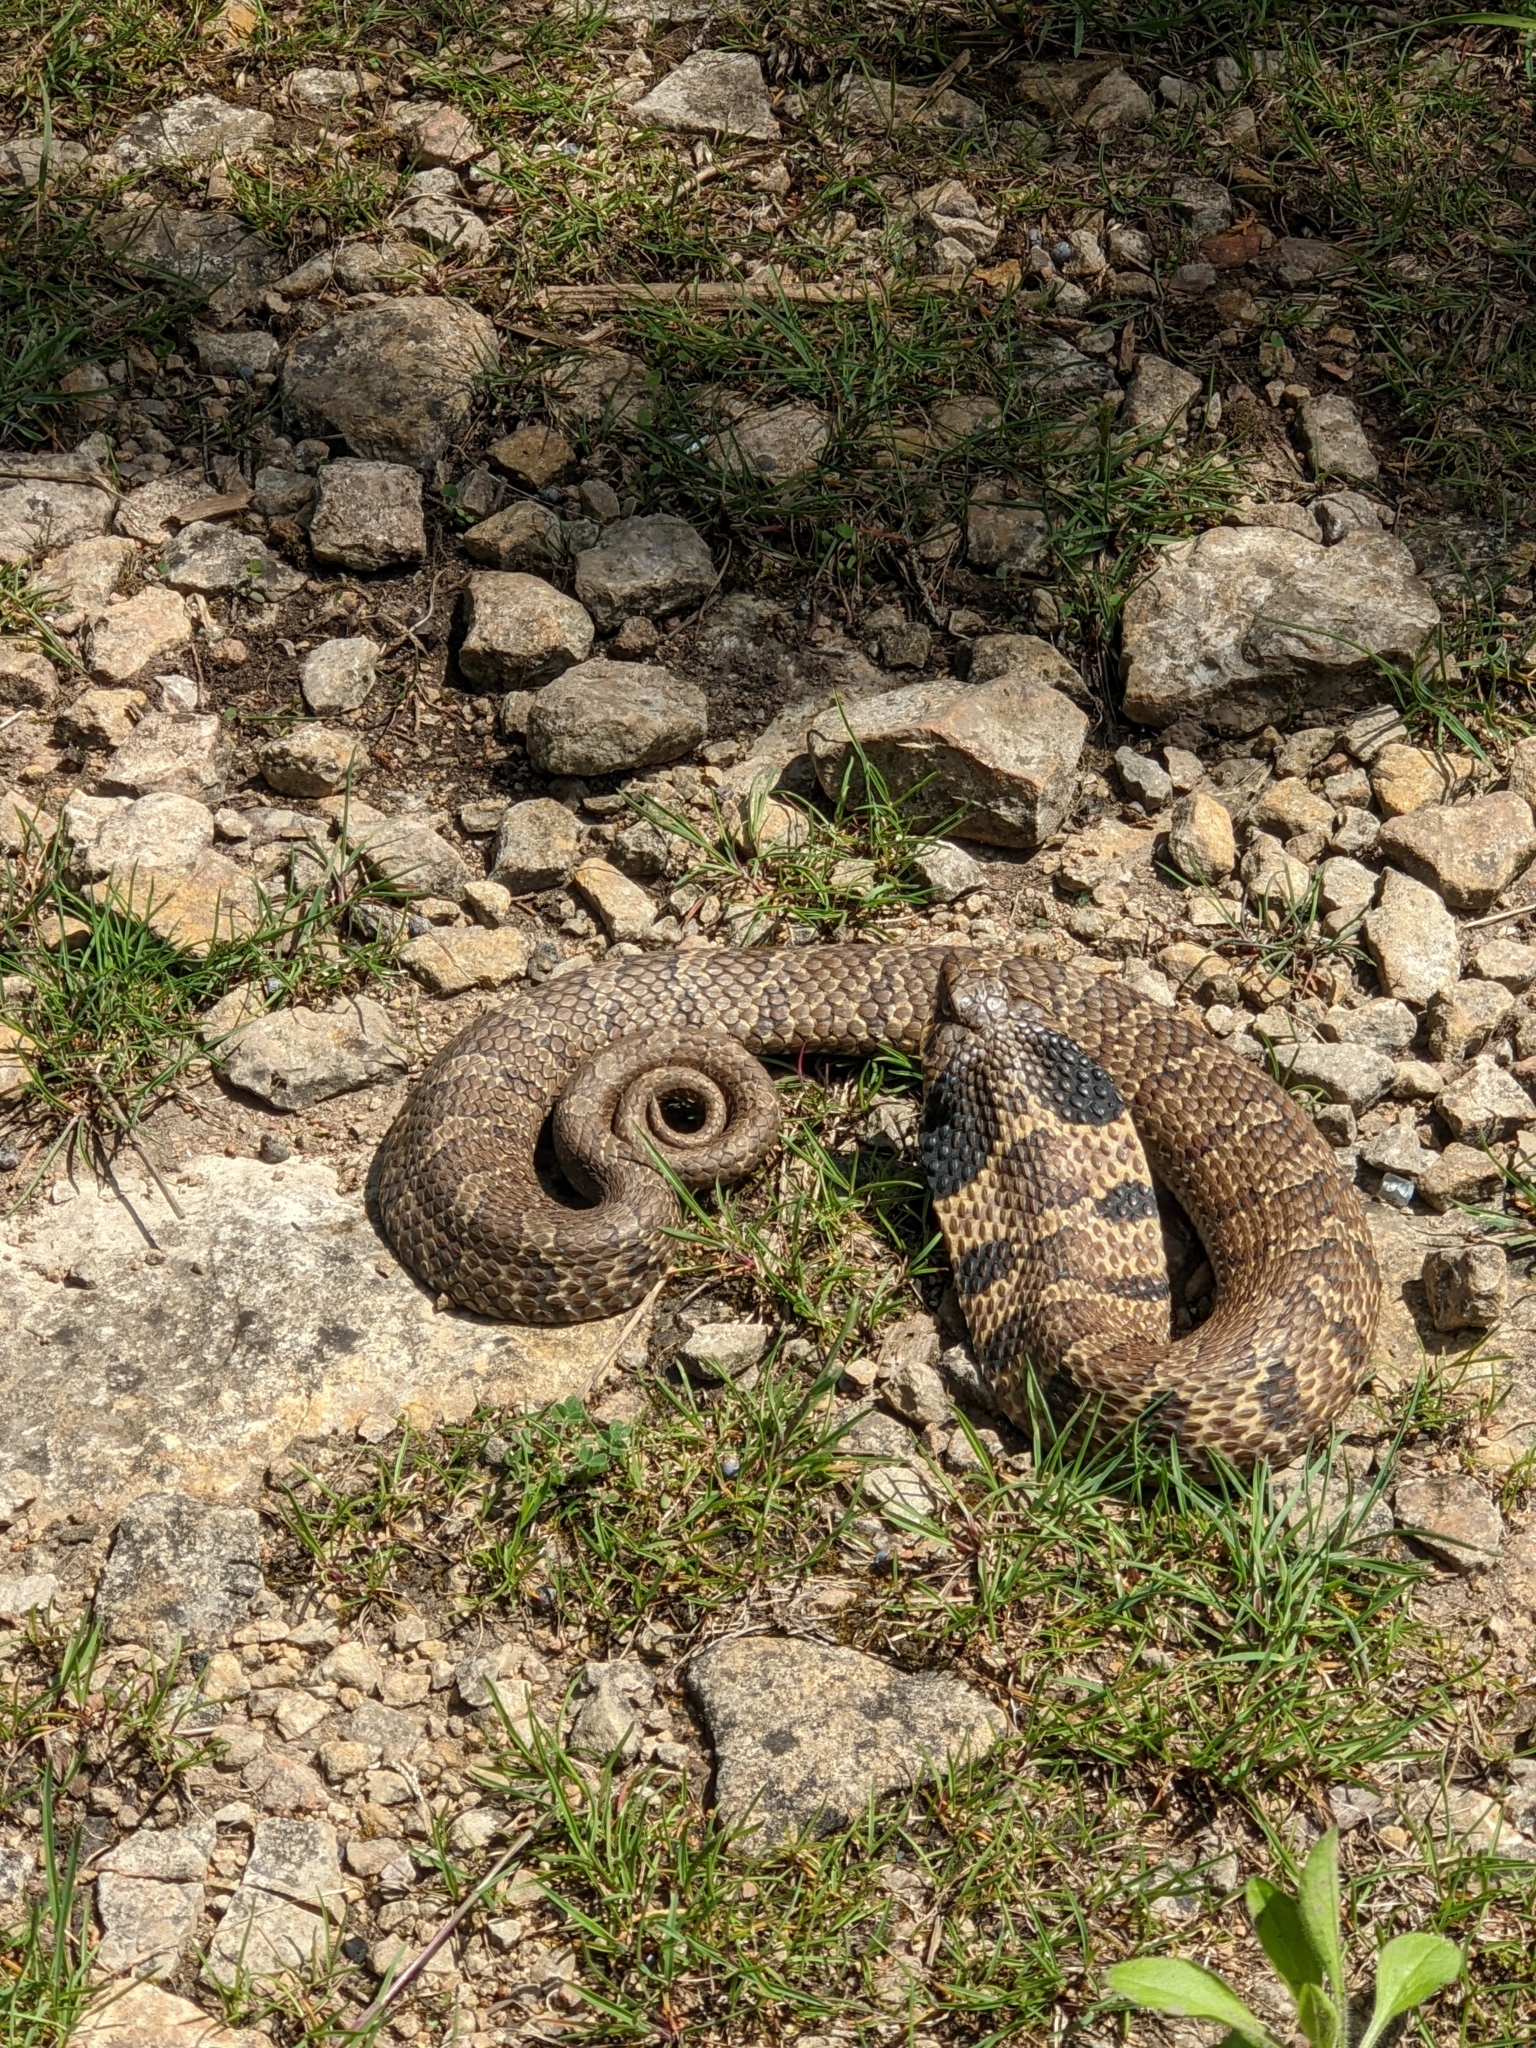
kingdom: Animalia
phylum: Chordata
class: Squamata
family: Colubridae
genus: Heterodon
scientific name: Heterodon platirhinos
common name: Eastern hognose snake
